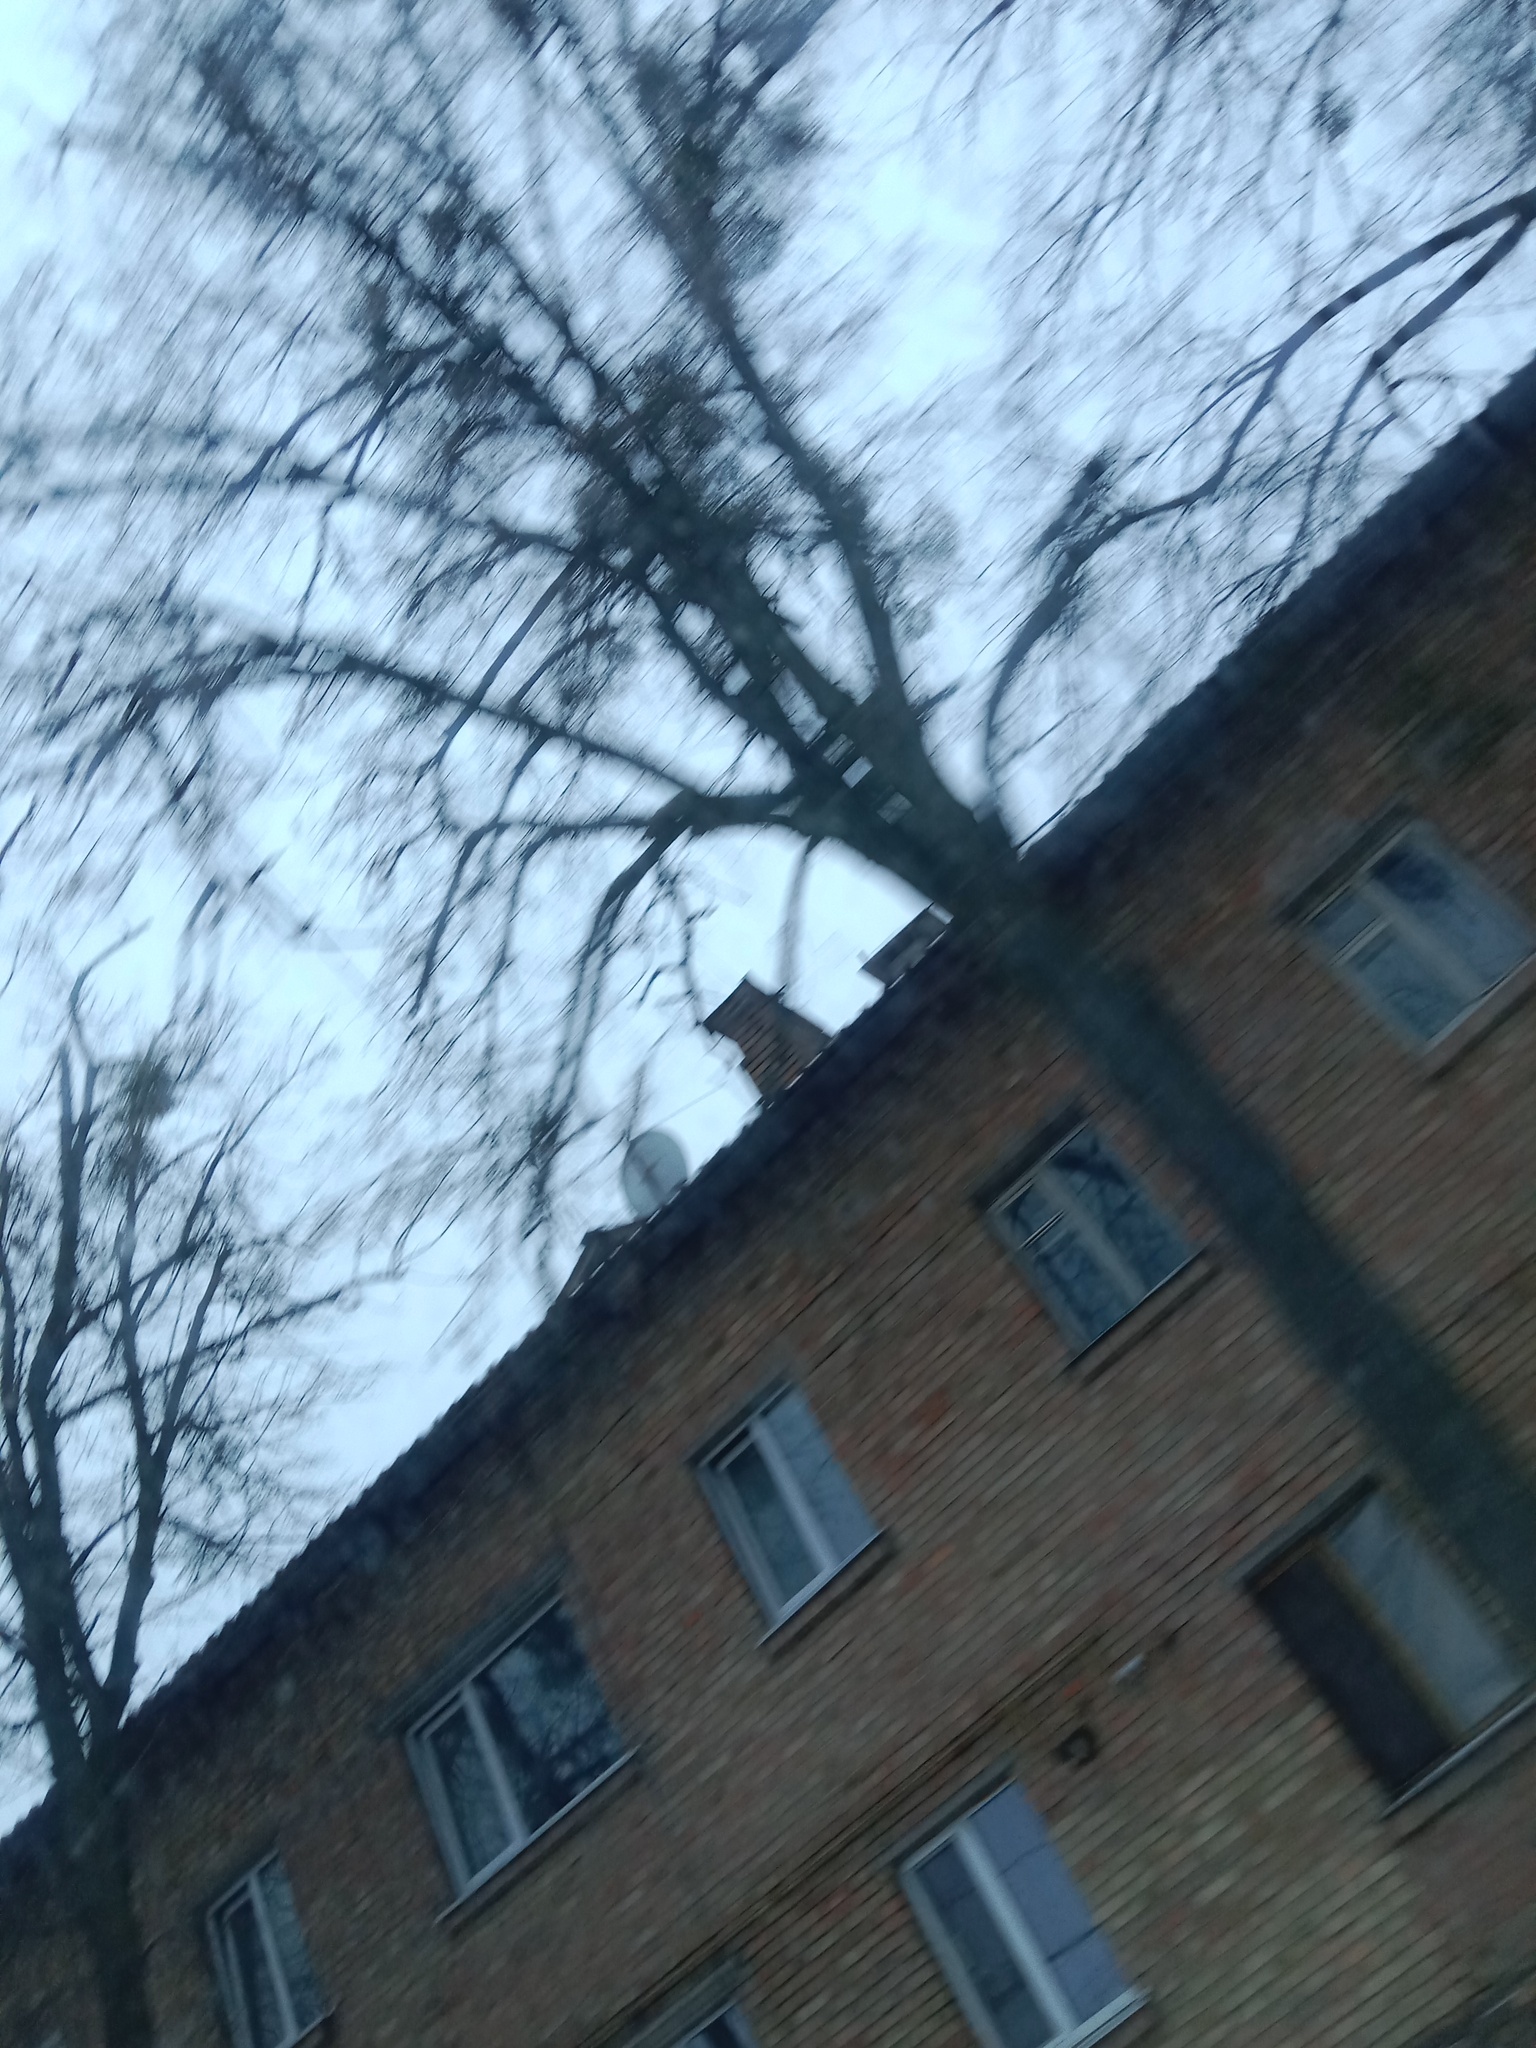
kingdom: Plantae
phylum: Tracheophyta
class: Magnoliopsida
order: Santalales
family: Viscaceae
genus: Viscum
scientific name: Viscum album
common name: Mistletoe
